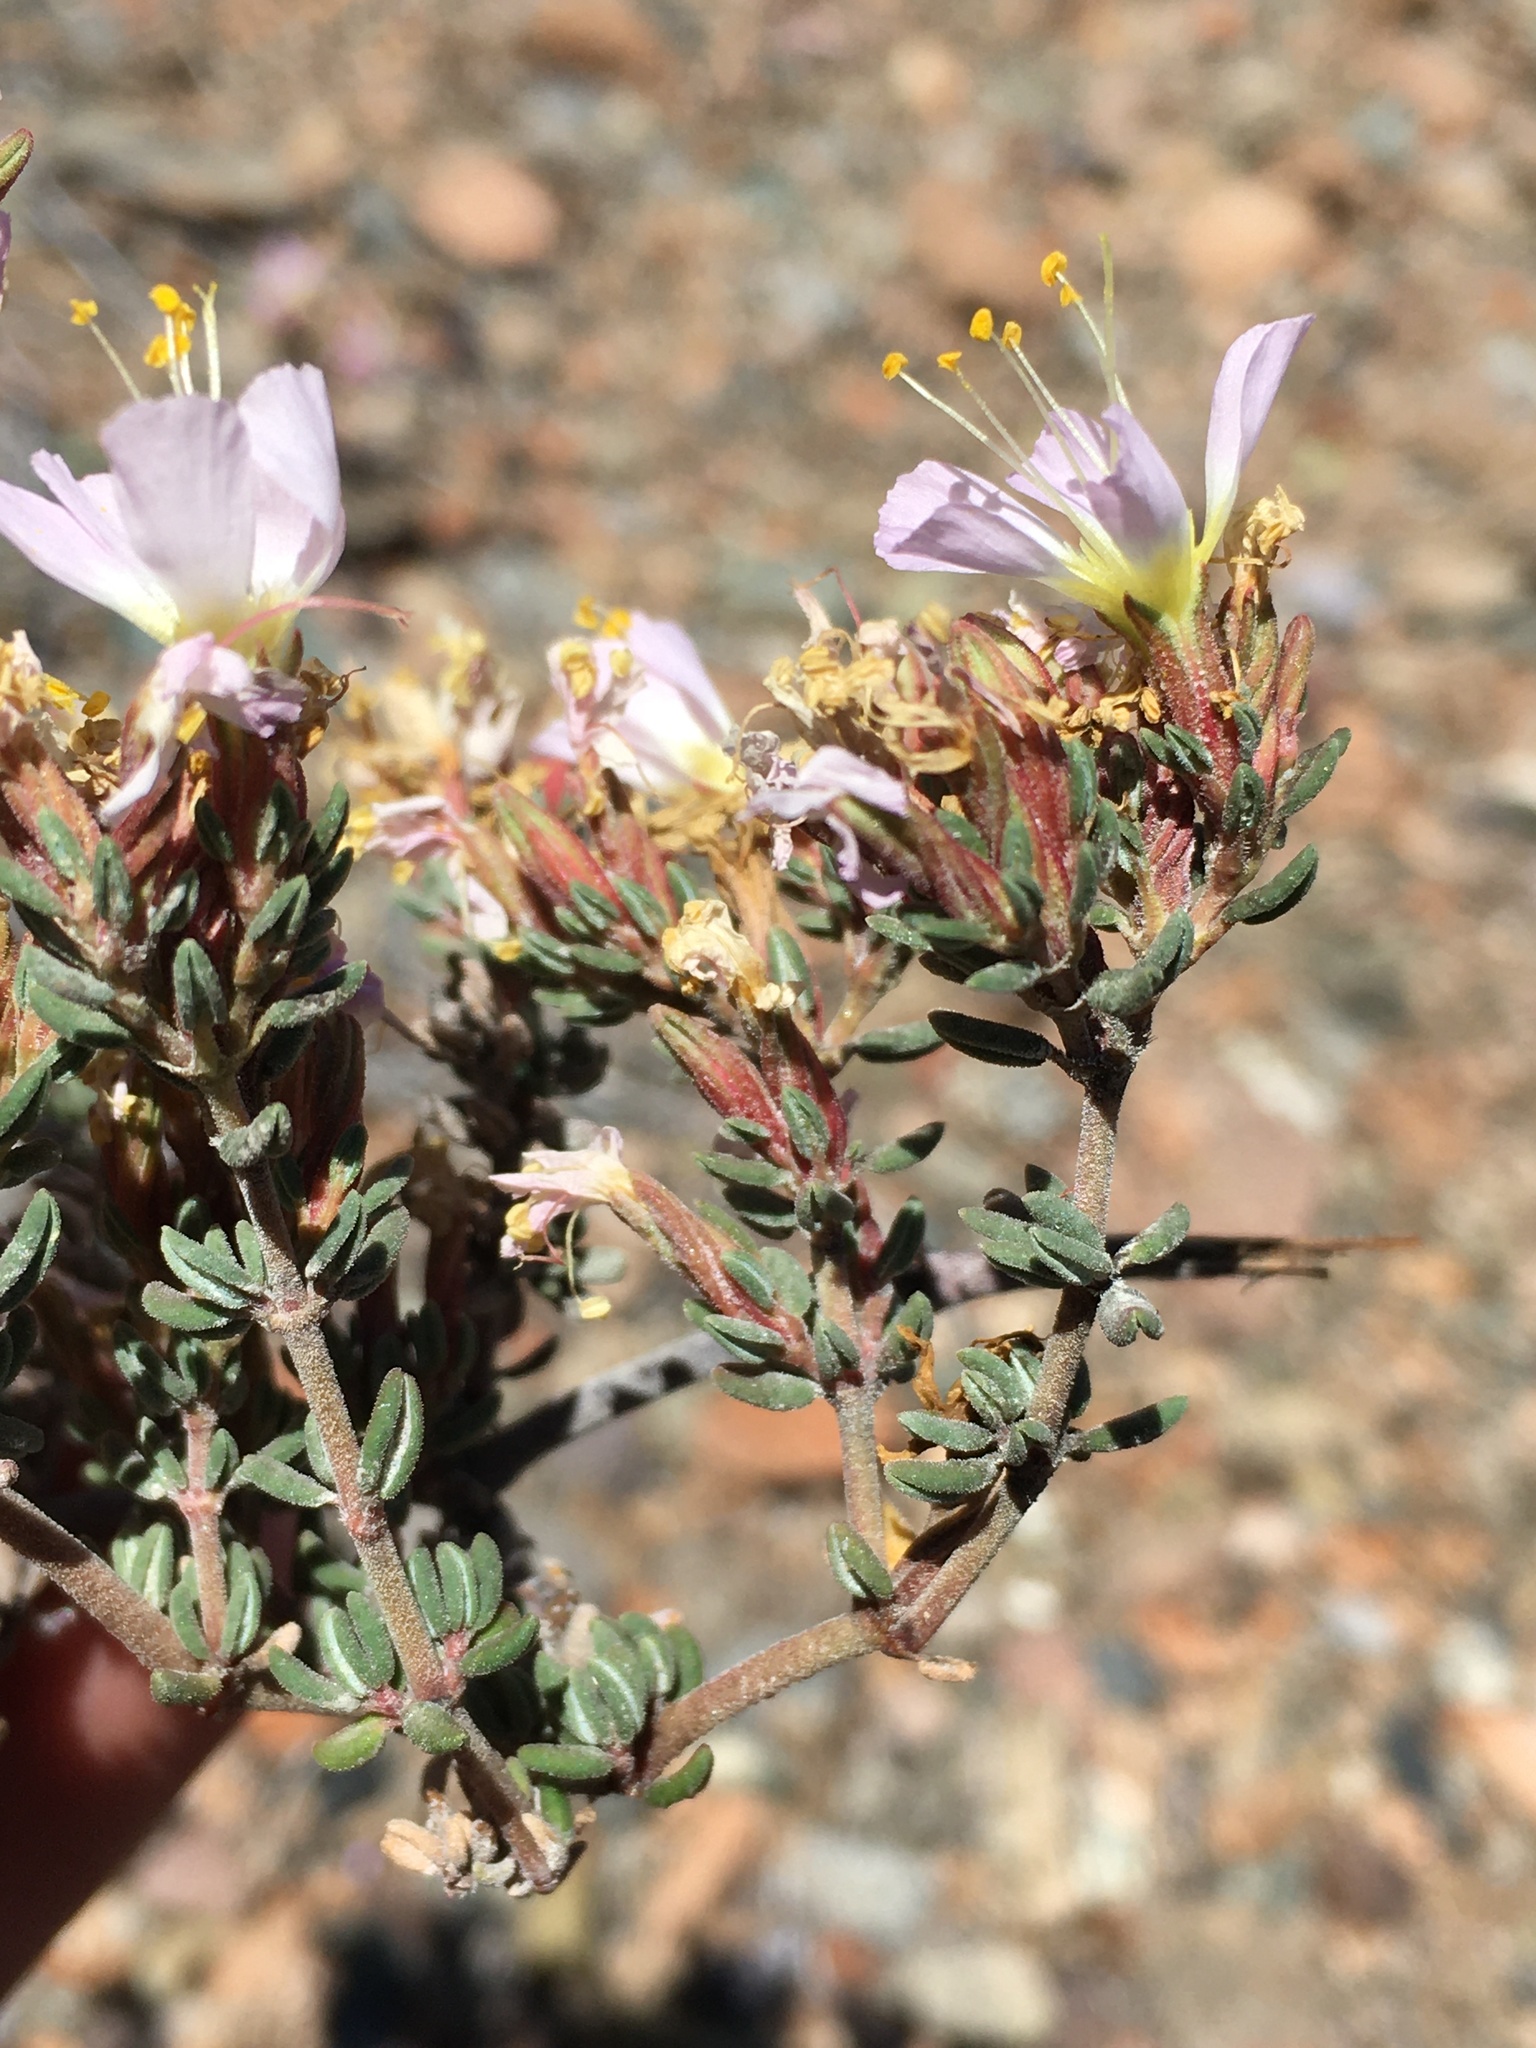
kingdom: Plantae
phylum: Tracheophyta
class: Magnoliopsida
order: Caryophyllales
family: Frankeniaceae
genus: Frankenia
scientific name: Frankenia chilensis
